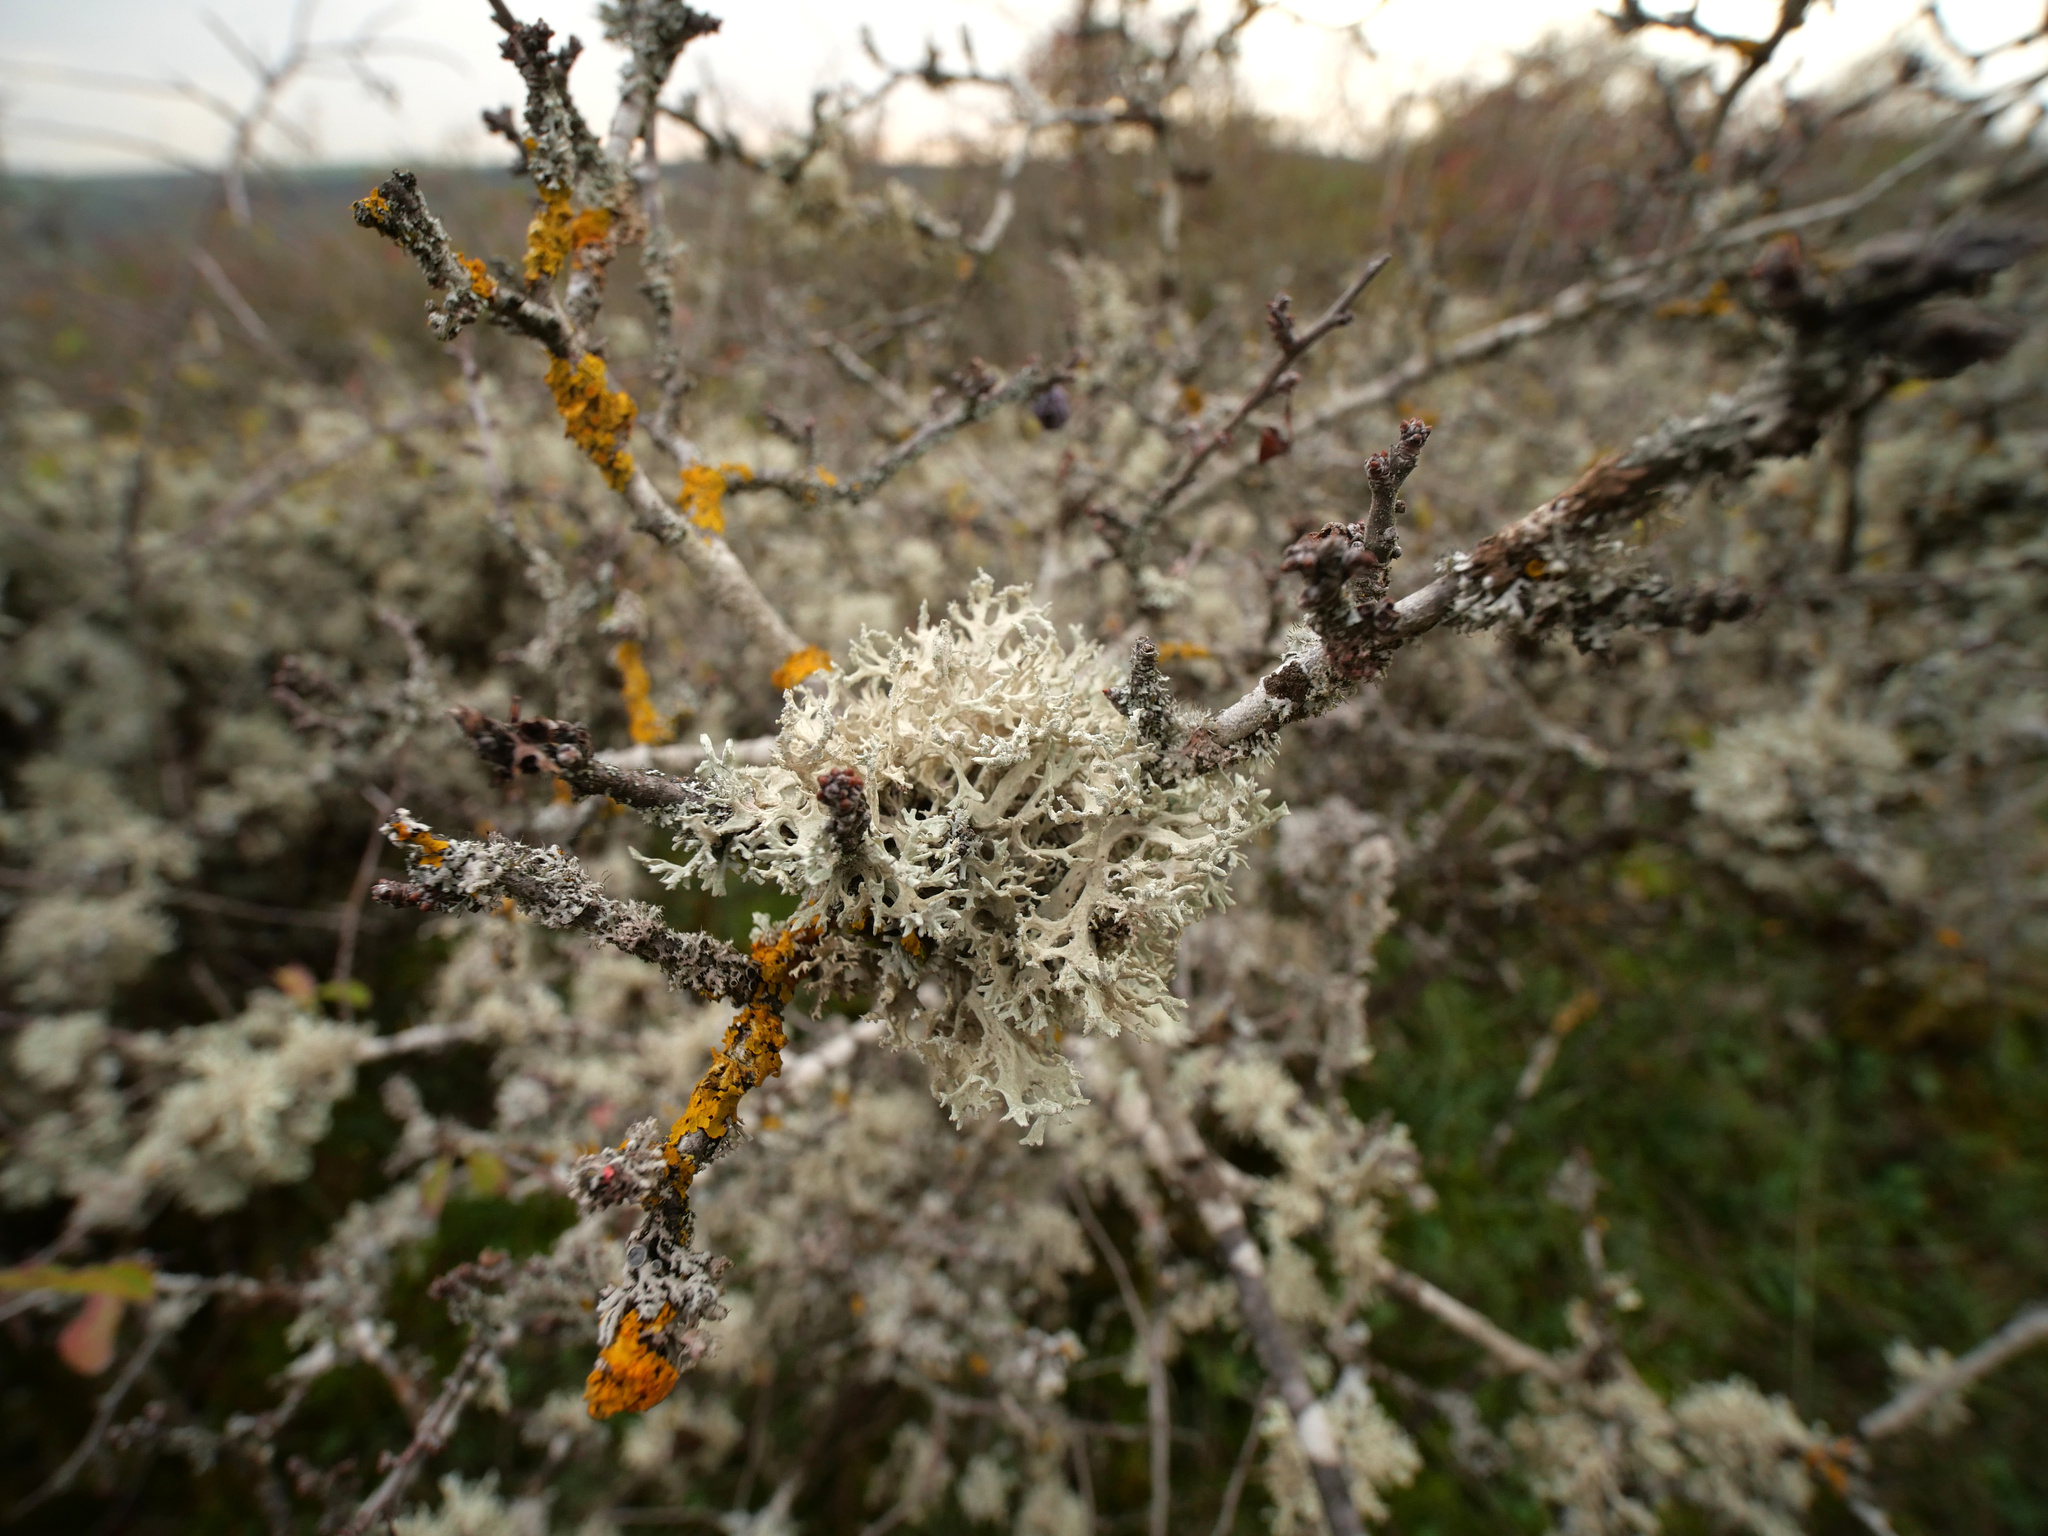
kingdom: Fungi
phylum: Ascomycota
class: Lecanoromycetes
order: Lecanorales
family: Parmeliaceae
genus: Evernia
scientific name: Evernia prunastri
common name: Oak moss
